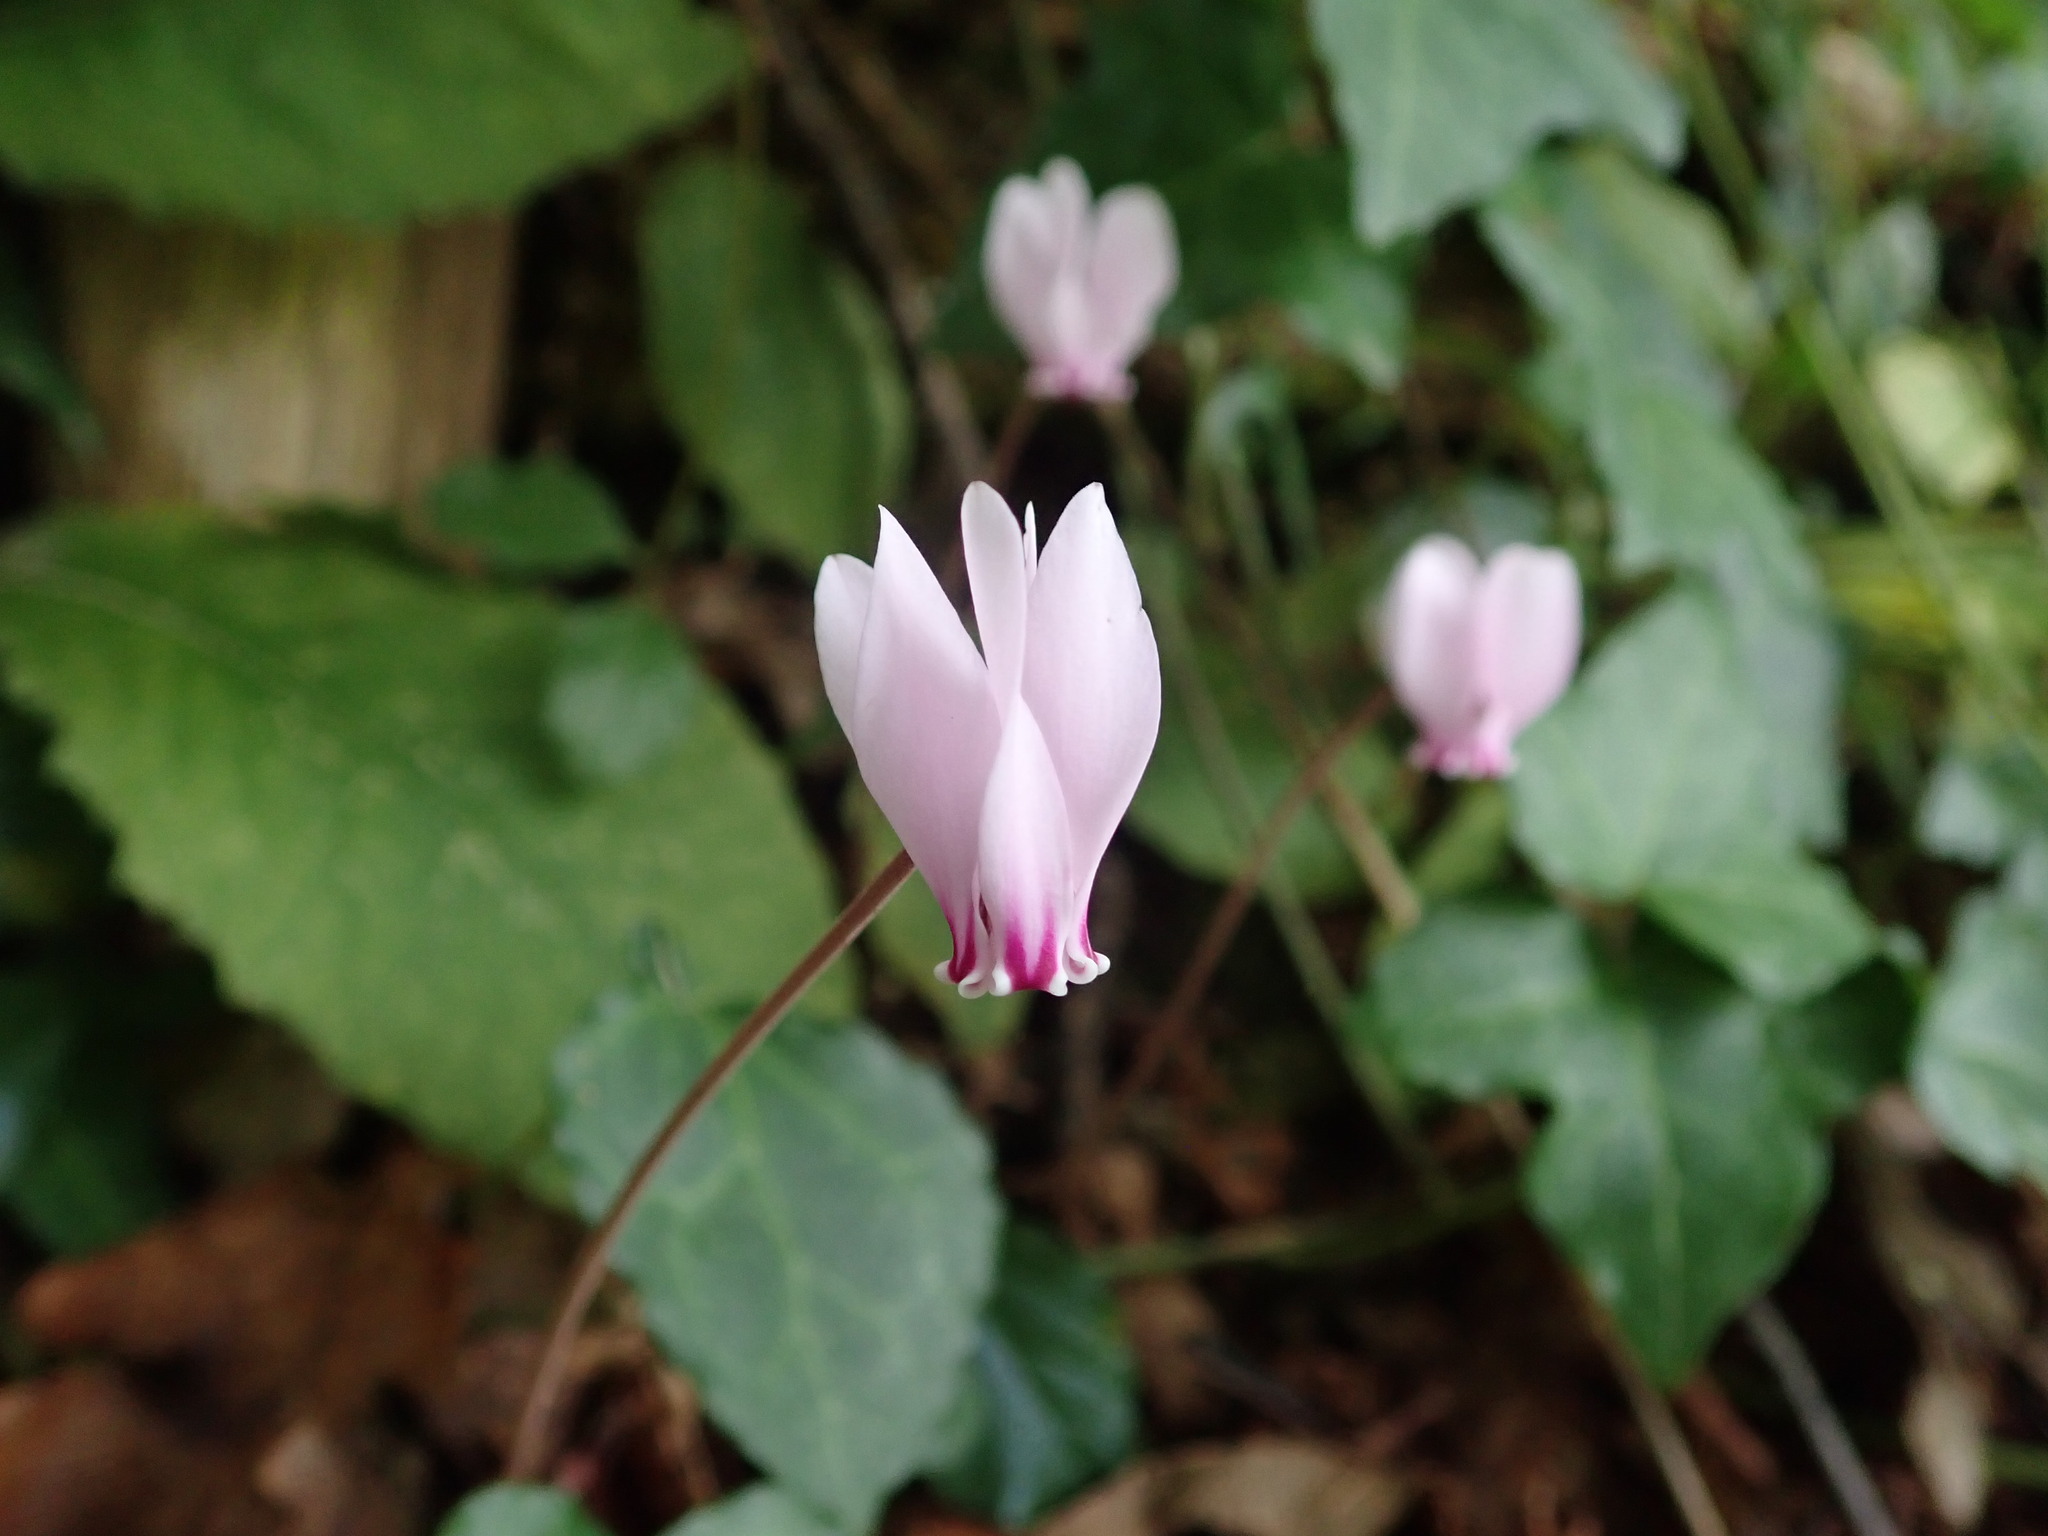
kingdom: Plantae
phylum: Tracheophyta
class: Magnoliopsida
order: Ericales
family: Primulaceae
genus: Cyclamen
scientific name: Cyclamen hederifolium
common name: Sowbread
